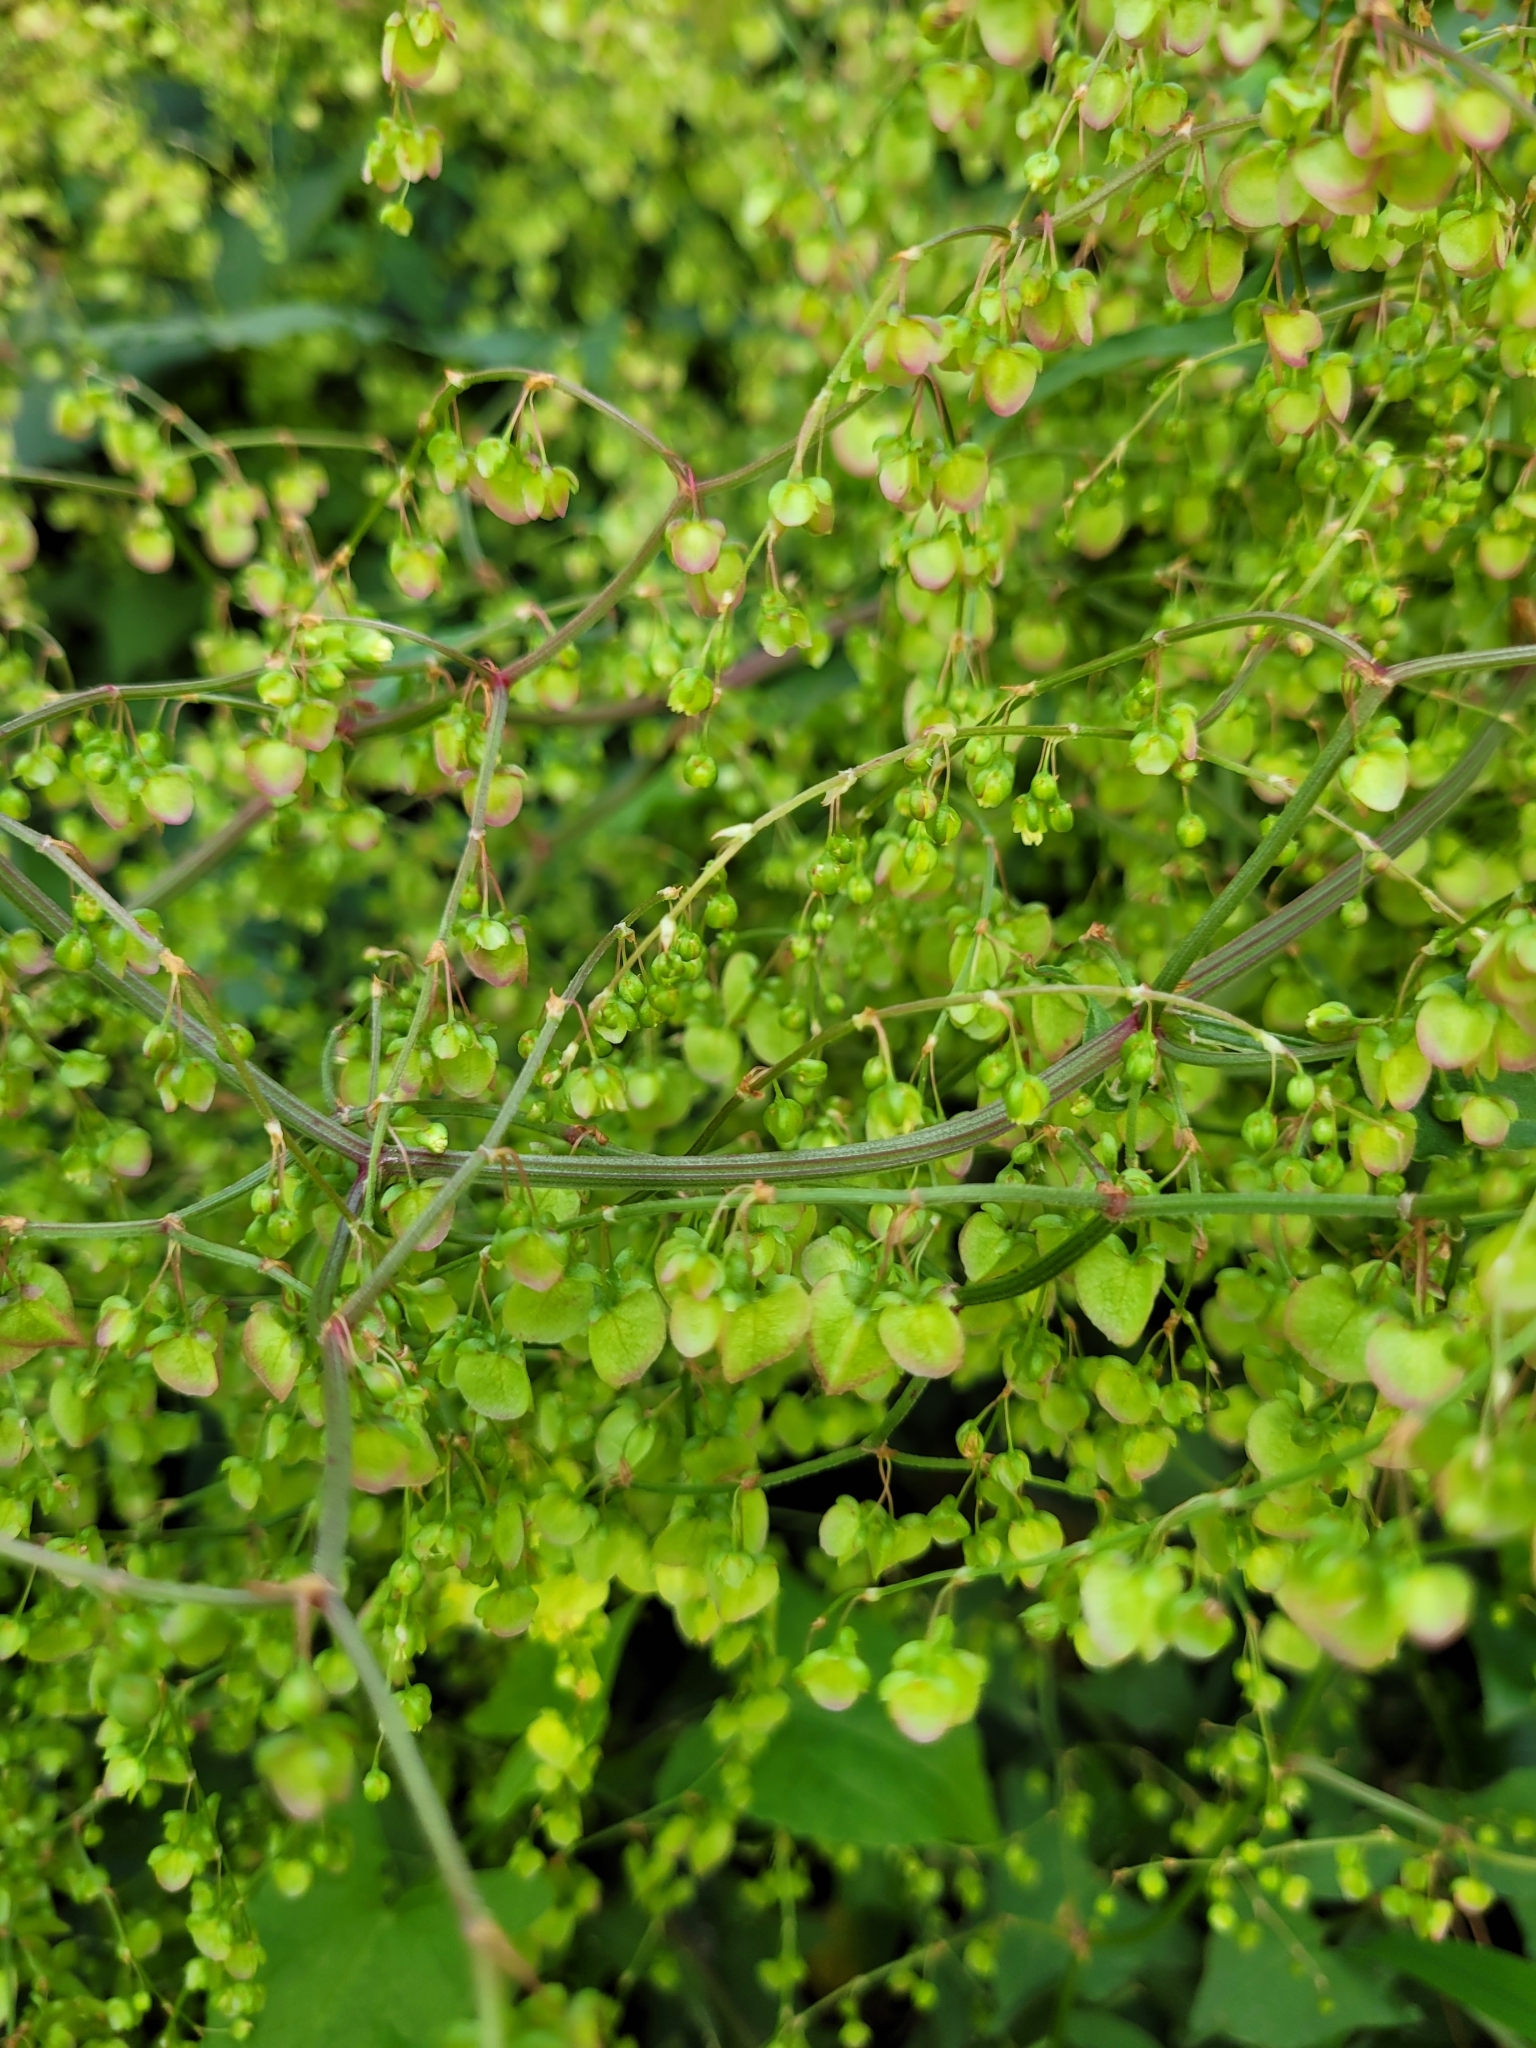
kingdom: Plantae
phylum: Tracheophyta
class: Magnoliopsida
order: Caryophyllales
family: Polygonaceae
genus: Rumex
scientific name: Rumex sagittatus
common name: Climbing dock
